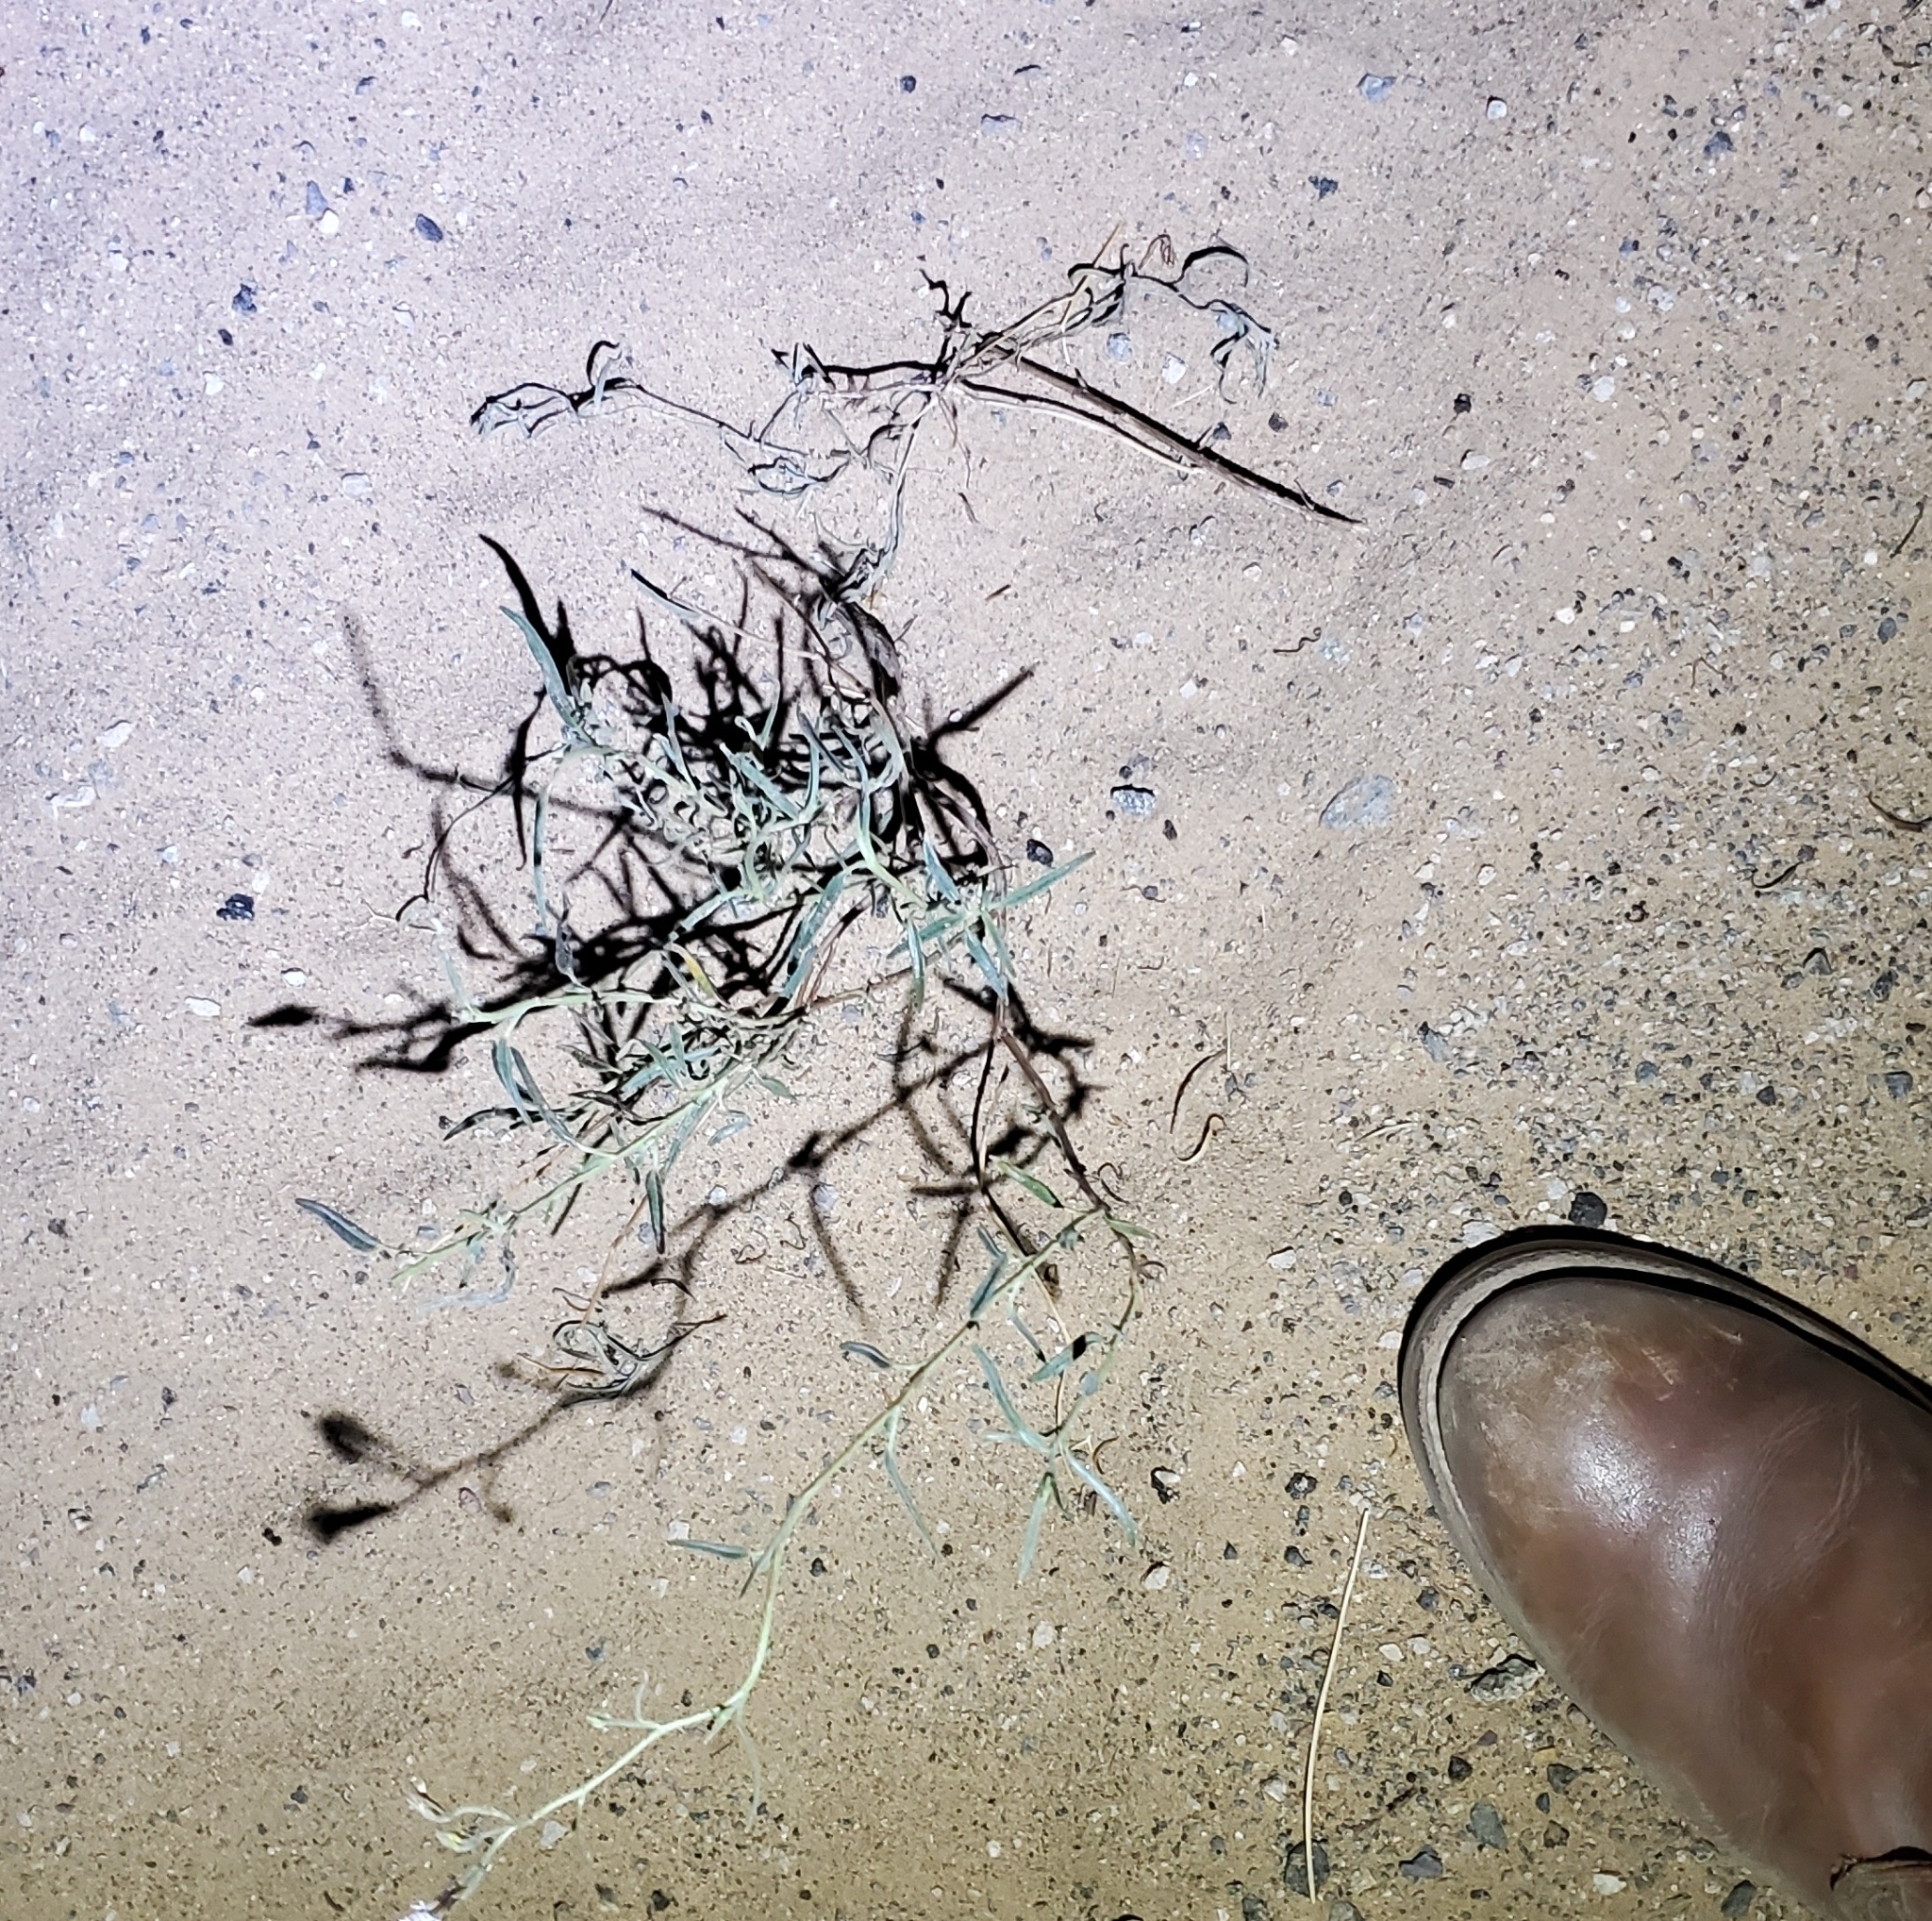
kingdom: Plantae
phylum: Tracheophyta
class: Magnoliopsida
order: Asterales
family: Asteraceae
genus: Palafoxia
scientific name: Palafoxia arida
